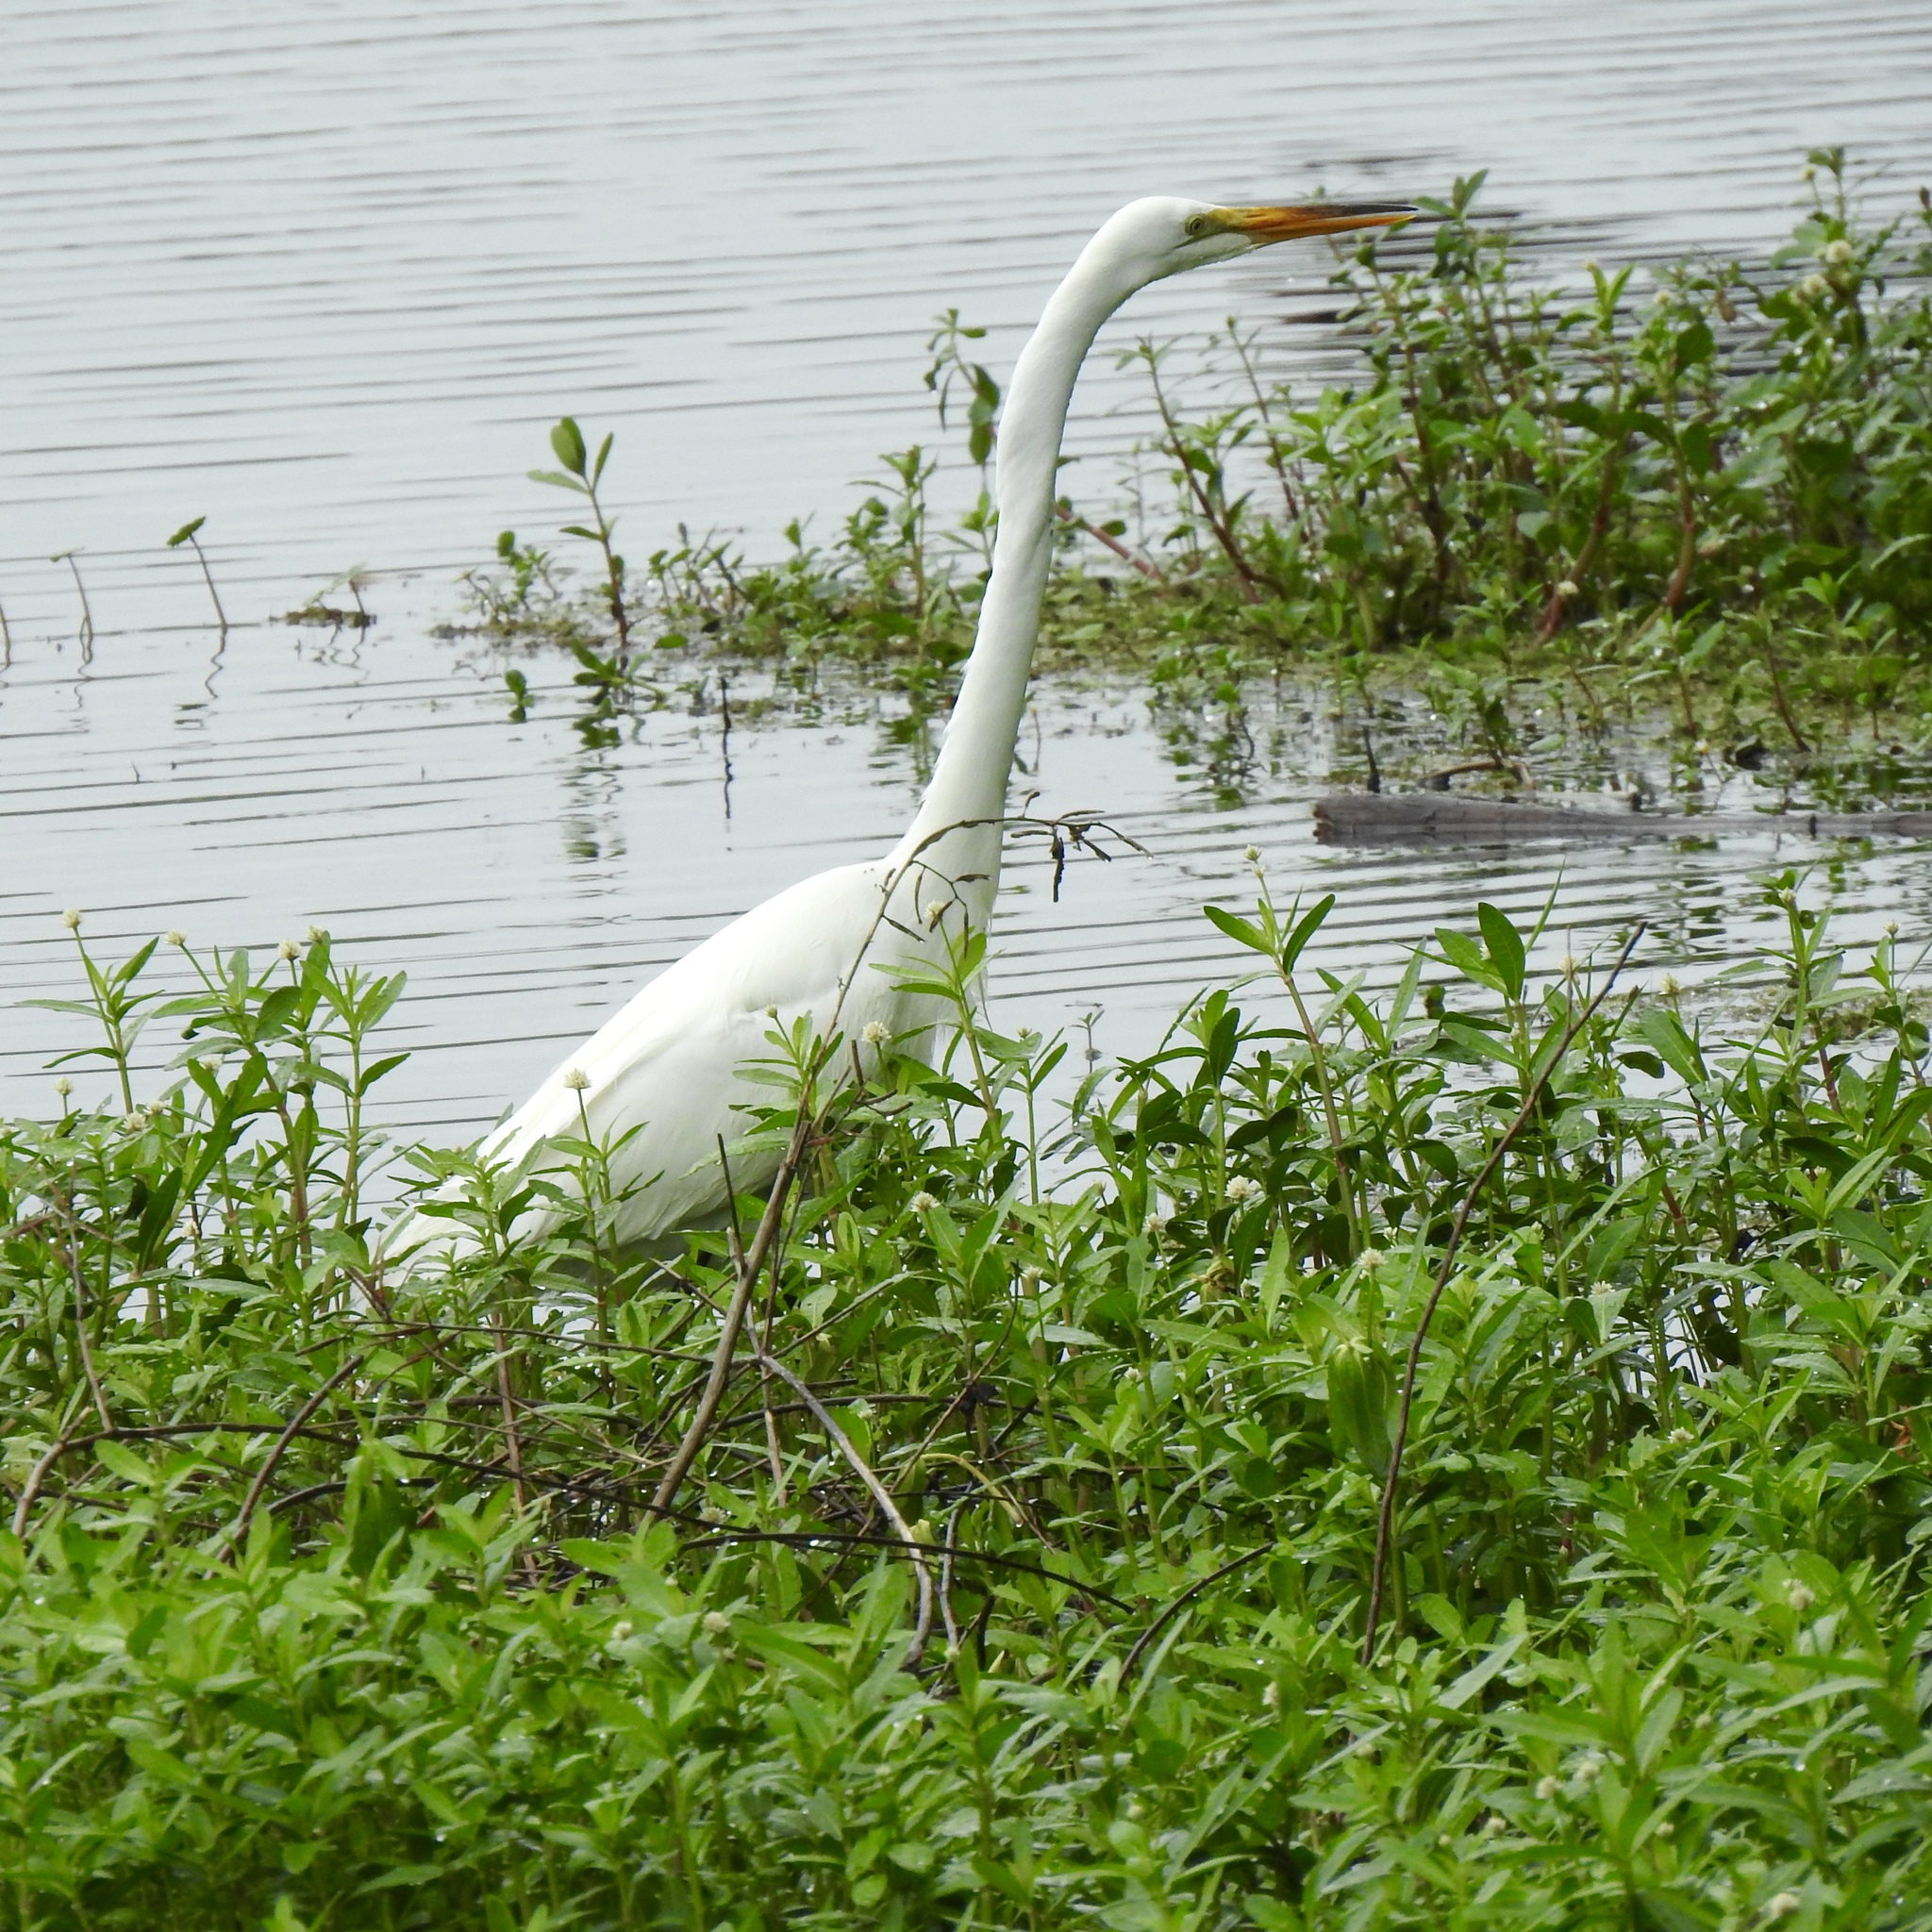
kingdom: Animalia
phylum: Chordata
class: Aves
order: Pelecaniformes
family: Ardeidae
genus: Ardea
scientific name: Ardea alba
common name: Great egret
